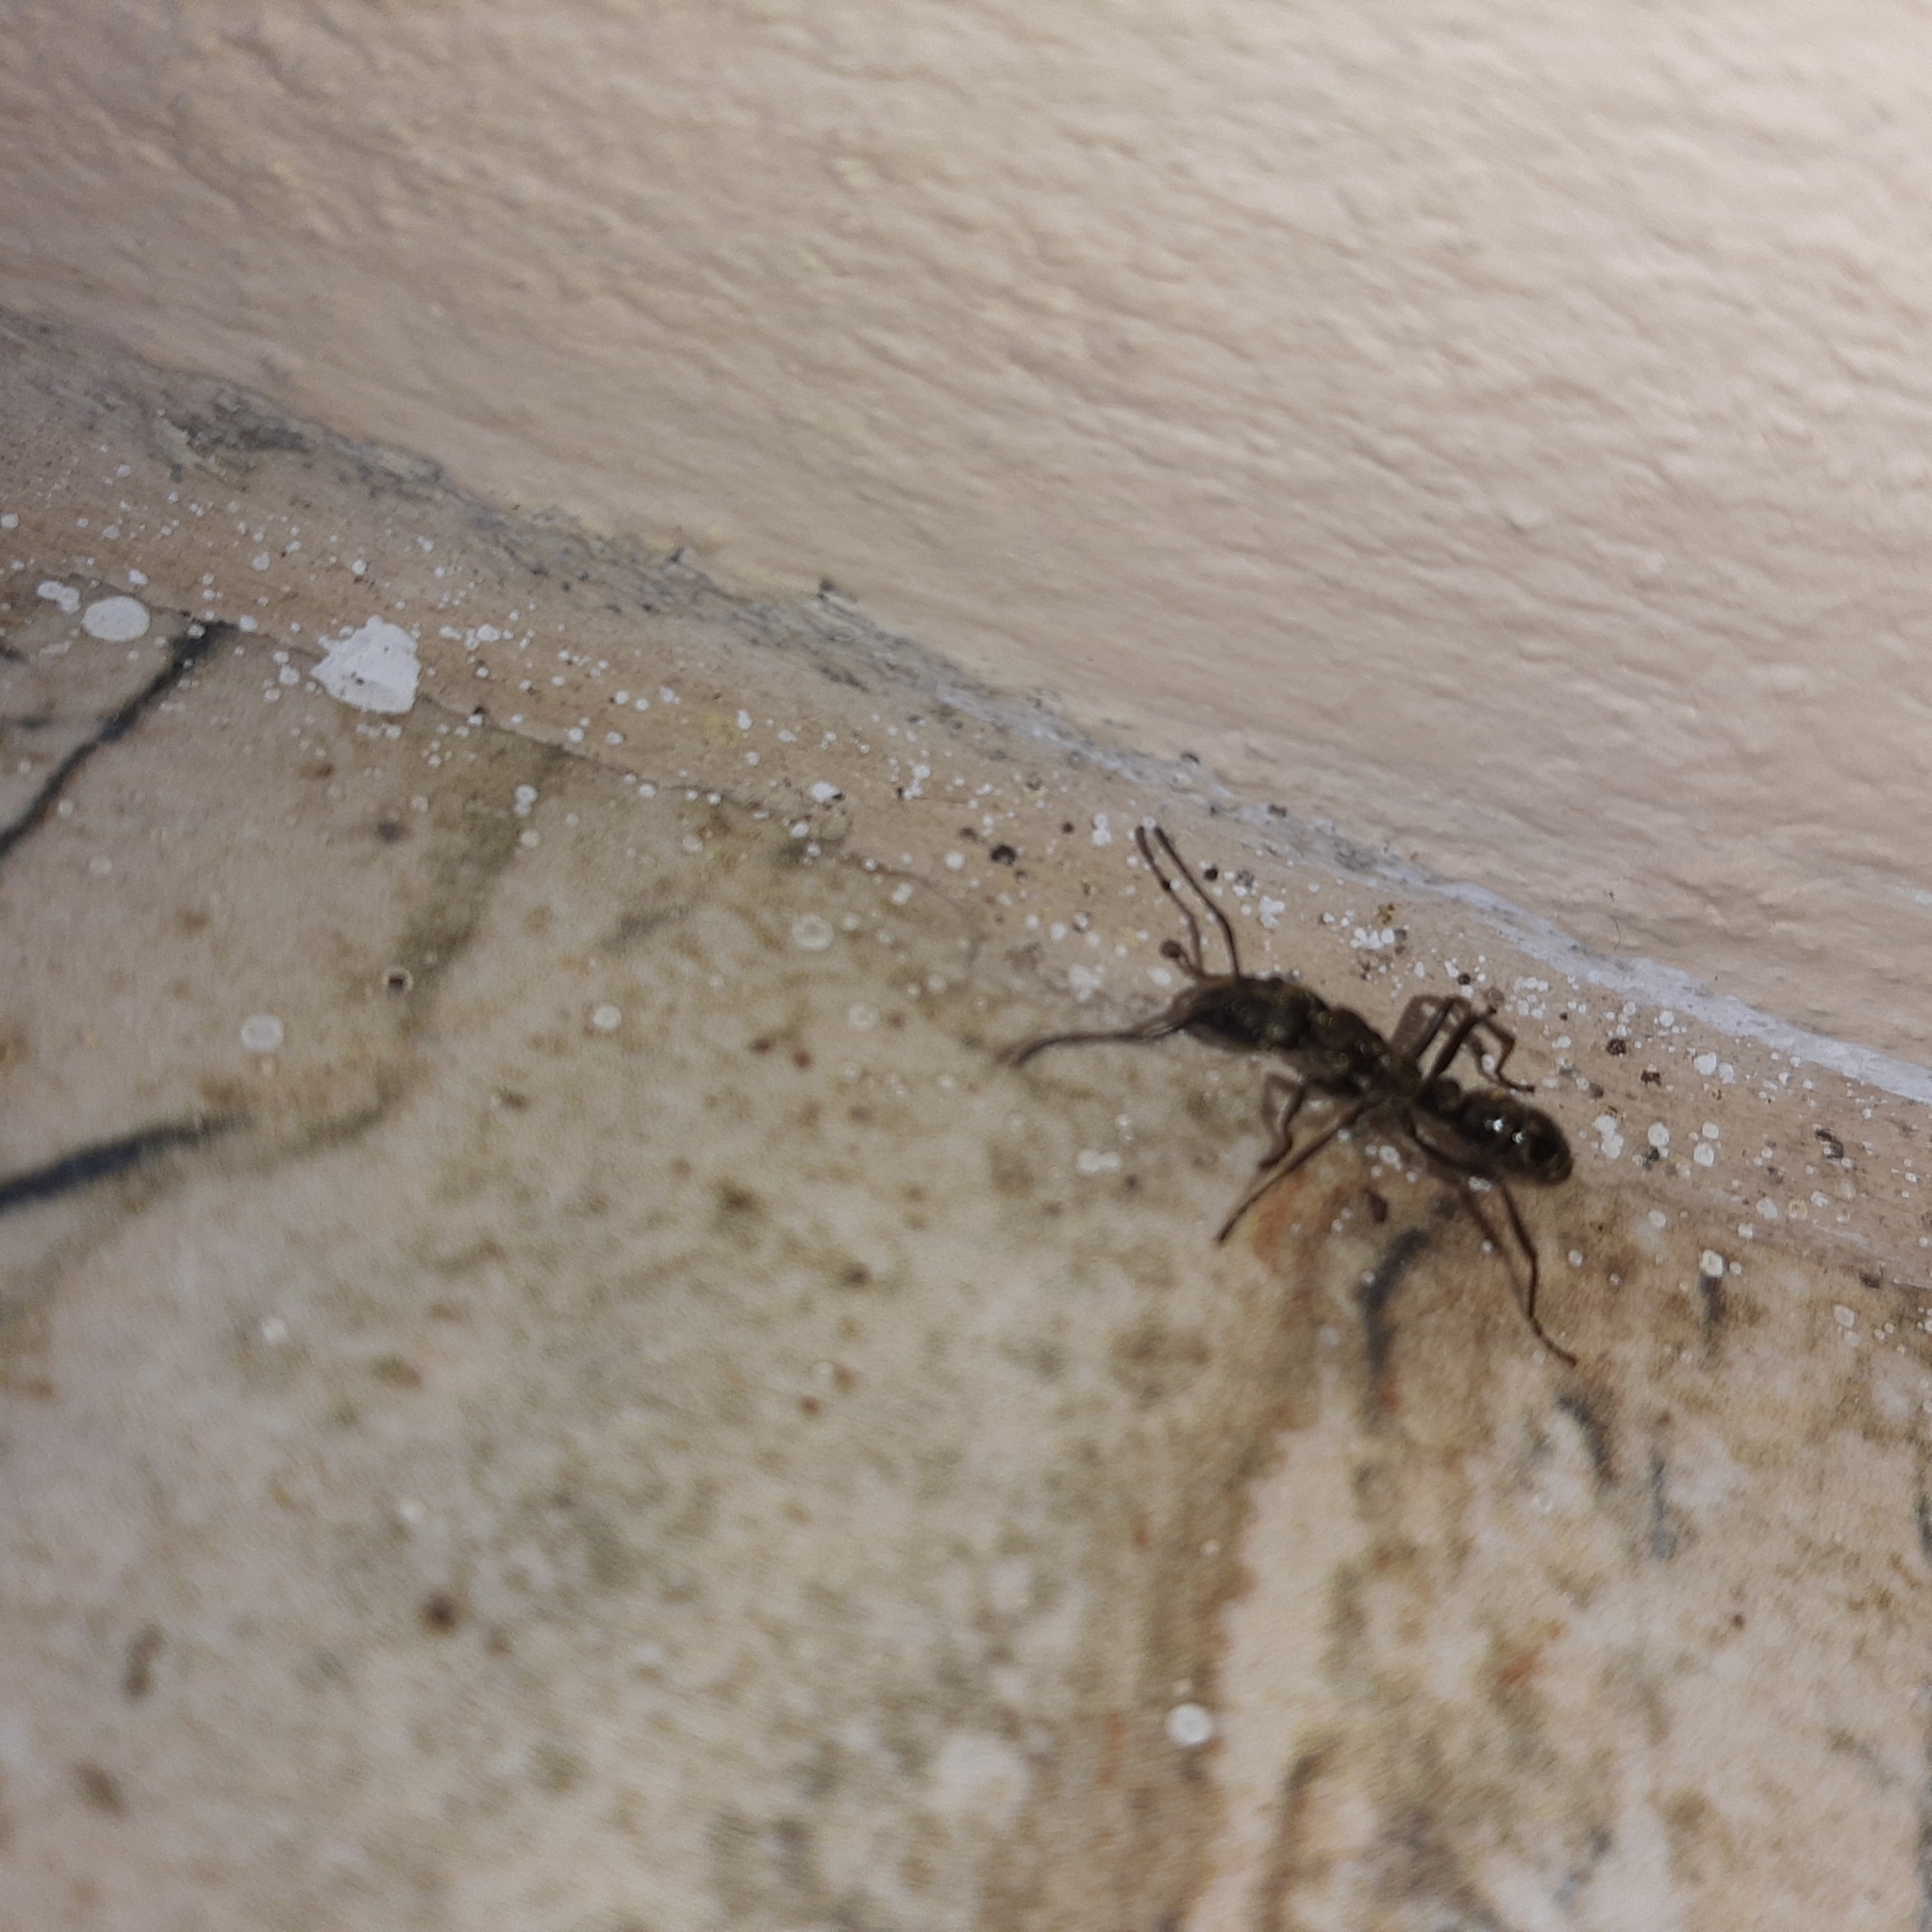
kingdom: Animalia
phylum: Arthropoda
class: Insecta
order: Hymenoptera
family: Formicidae
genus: Pachycondyla
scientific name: Pachycondyla villosa
